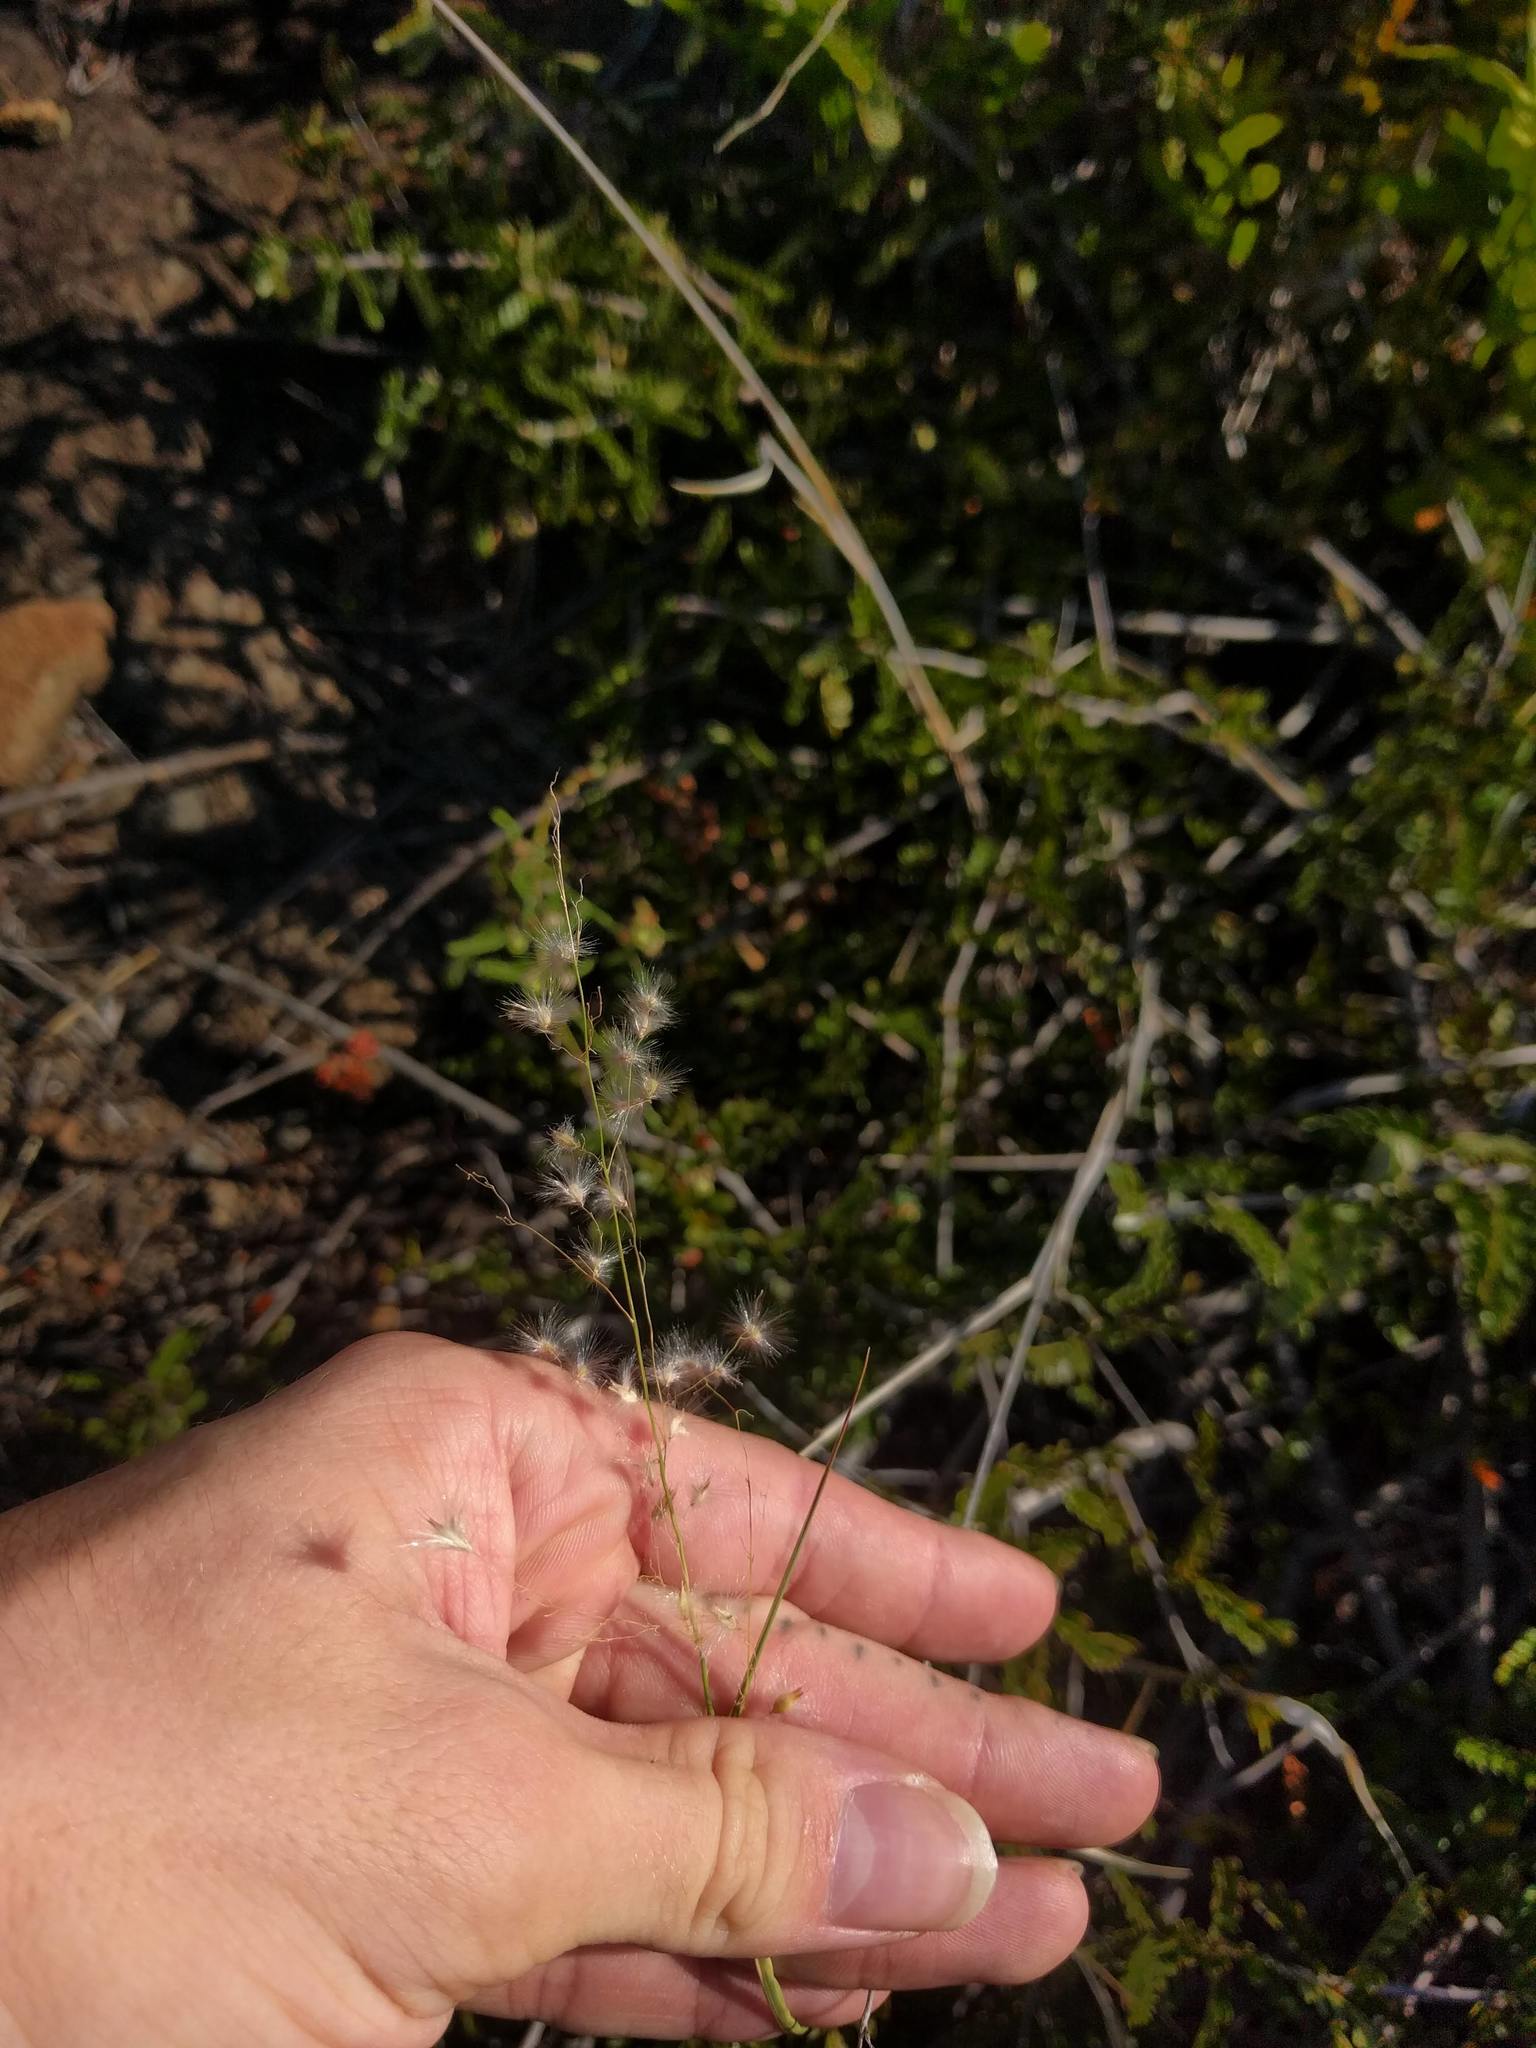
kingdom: Plantae
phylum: Tracheophyta
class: Liliopsida
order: Poales
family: Poaceae
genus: Melinis
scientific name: Melinis repens
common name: Rose natal grass
